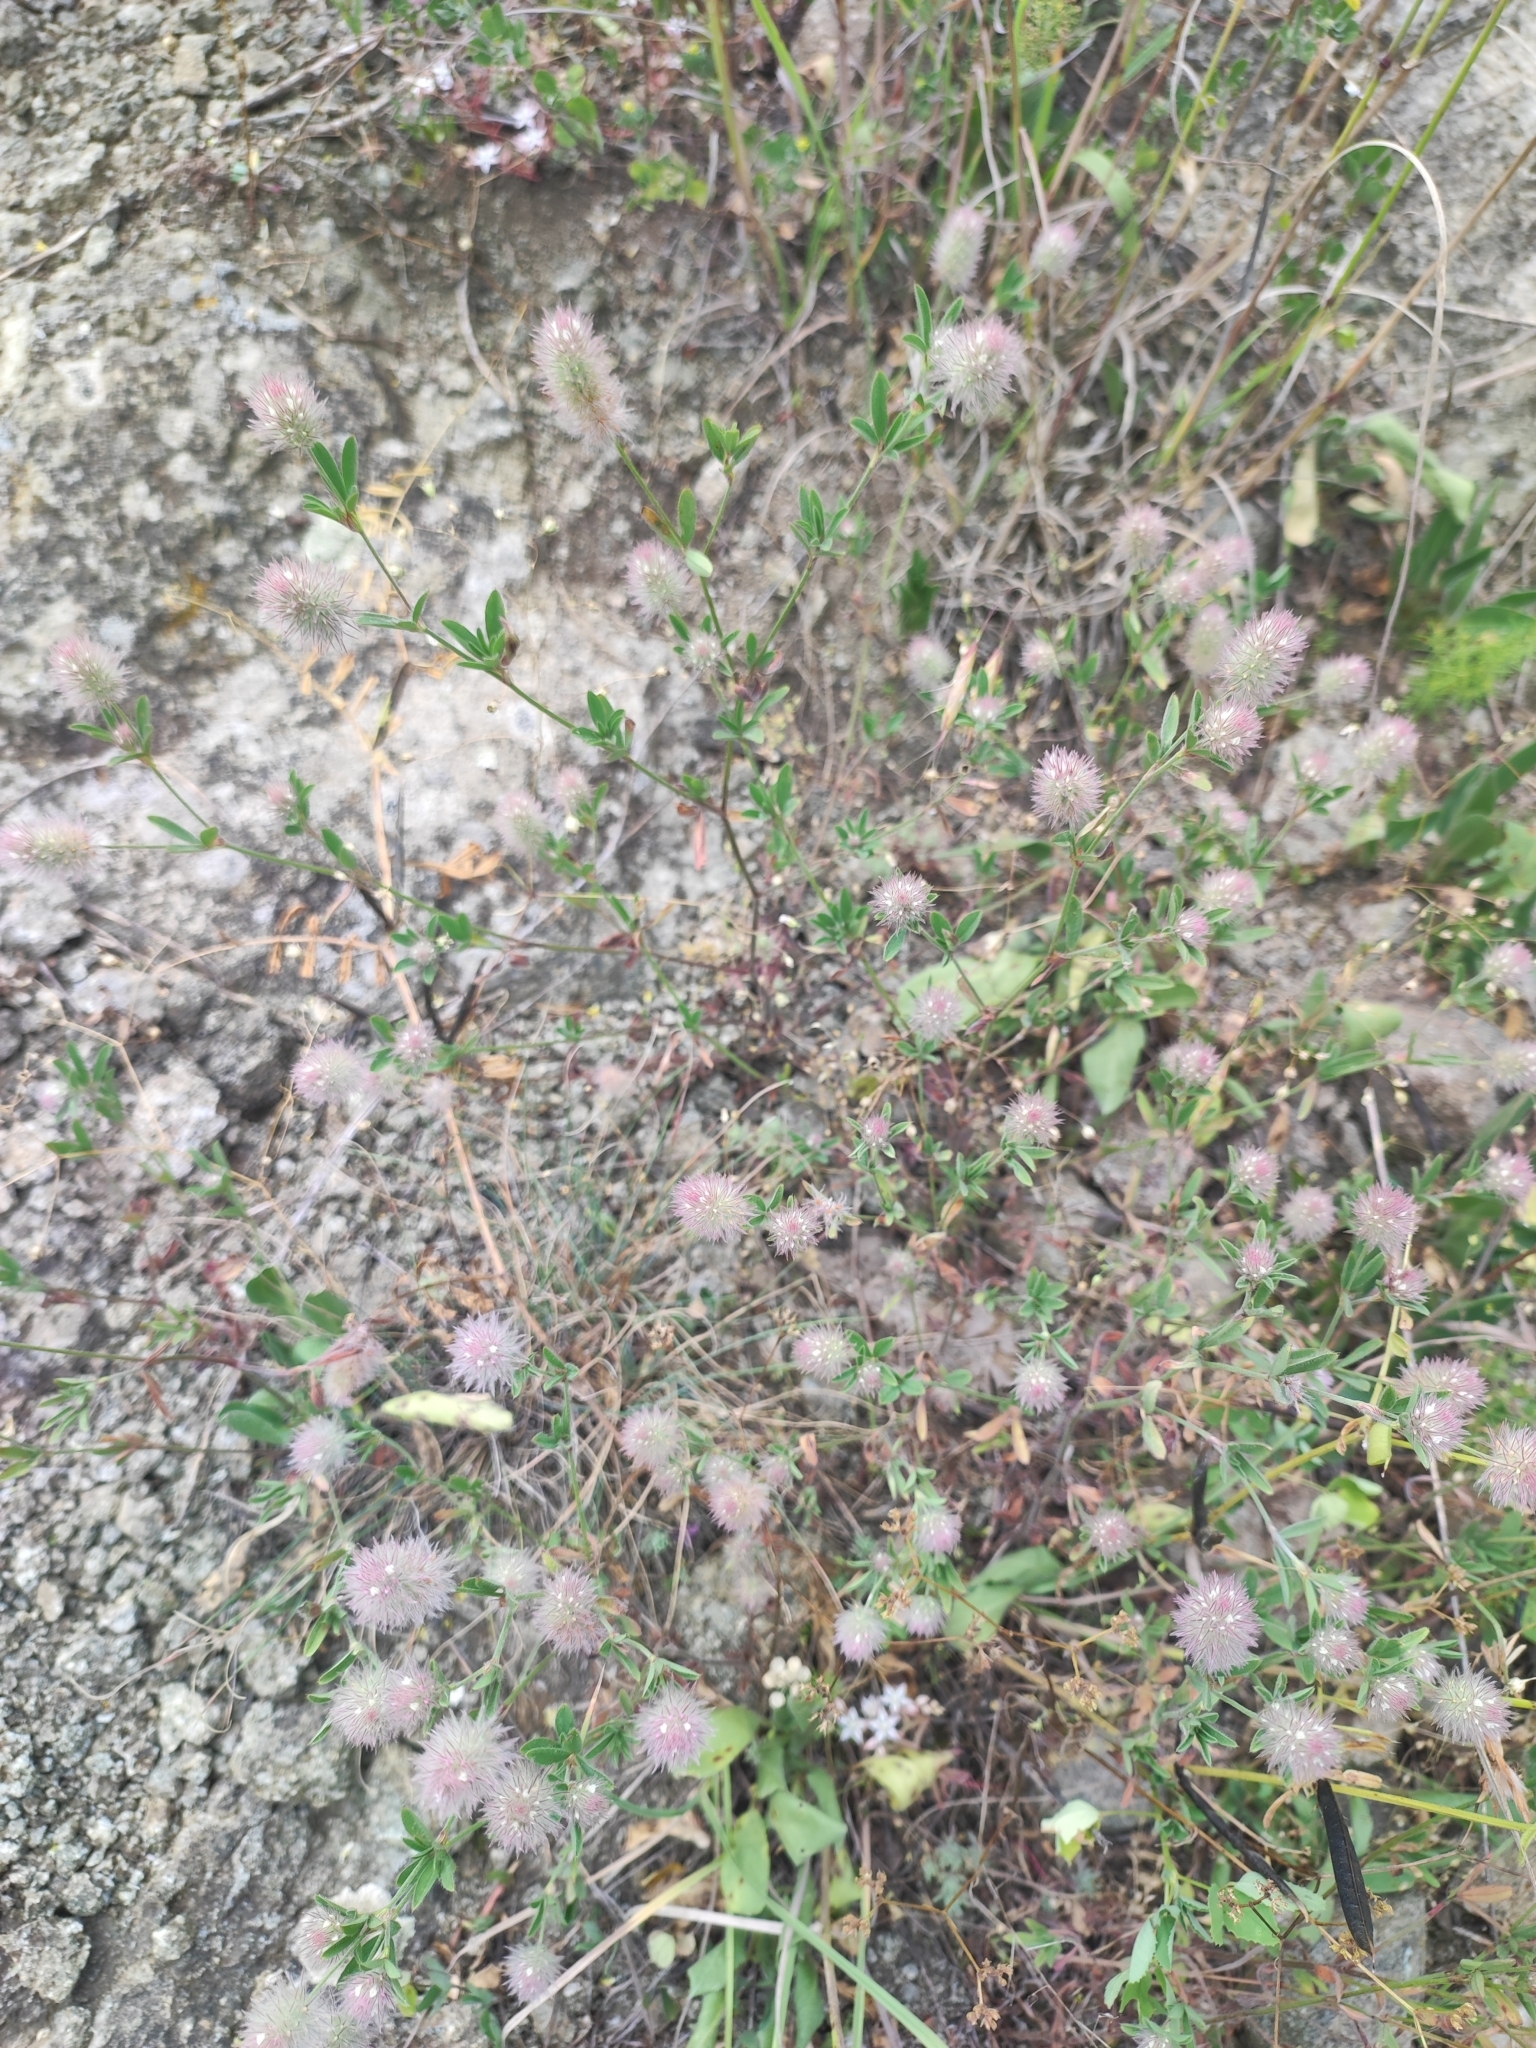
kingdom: Plantae
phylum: Tracheophyta
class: Magnoliopsida
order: Fabales
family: Fabaceae
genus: Trifolium
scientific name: Trifolium arvense
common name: Hare's-foot clover
